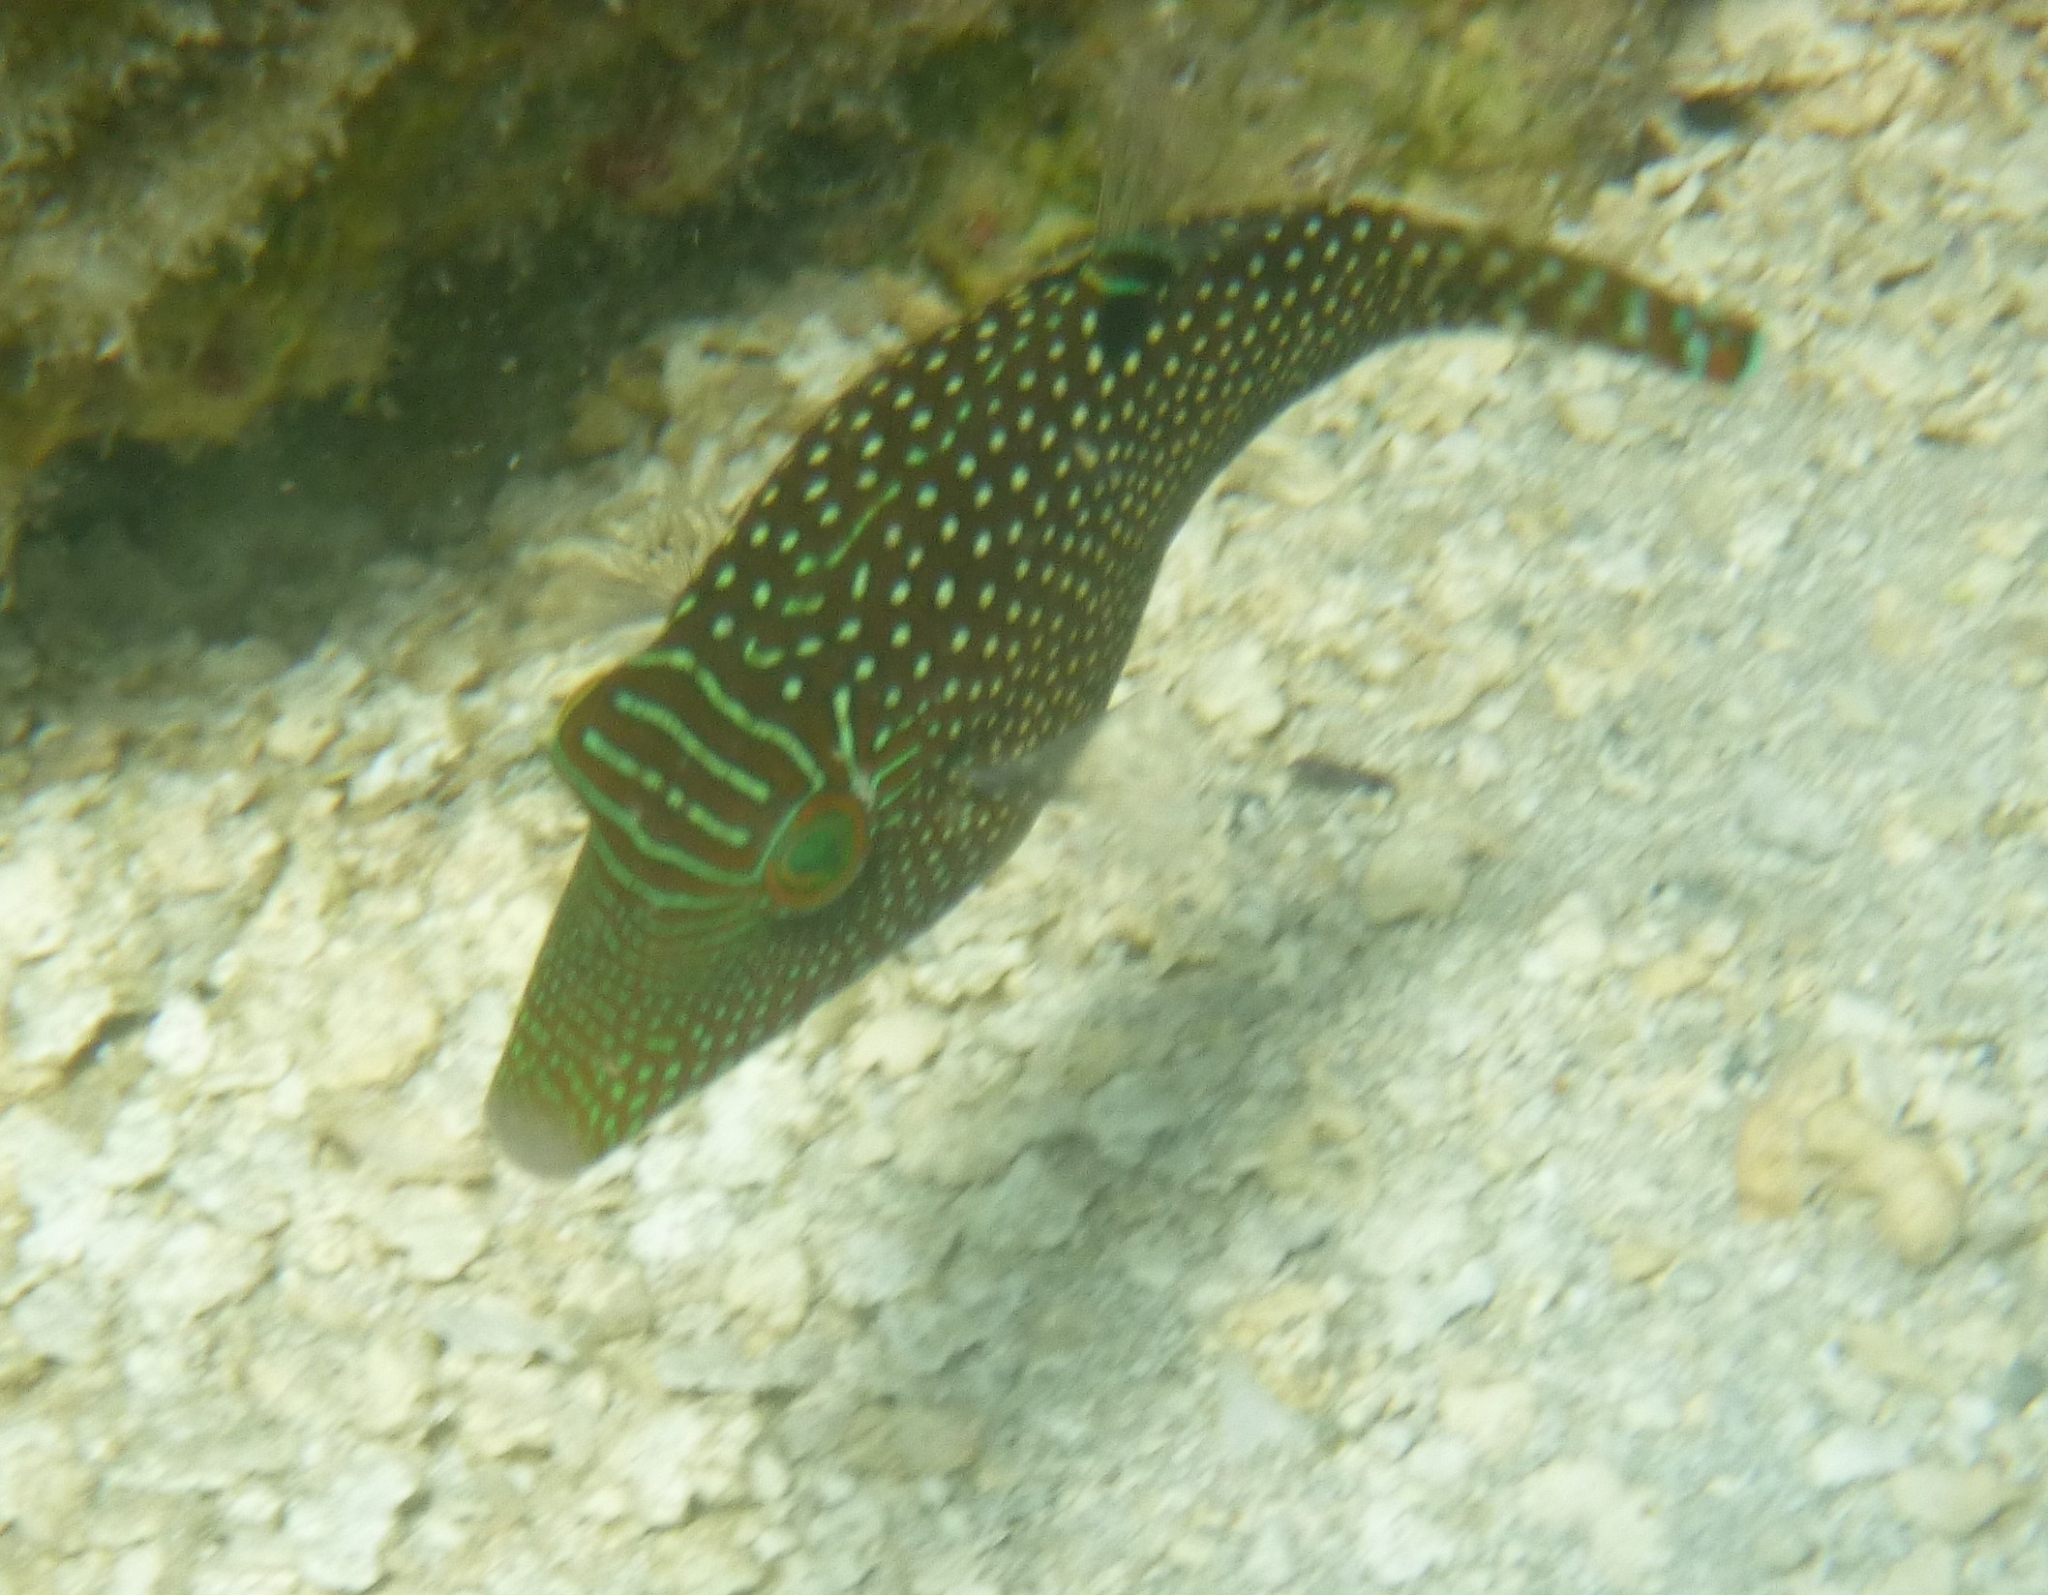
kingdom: Animalia
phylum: Chordata
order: Tetraodontiformes
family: Tetraodontidae
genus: Canthigaster
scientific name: Canthigaster solandri
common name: False-eye toby
